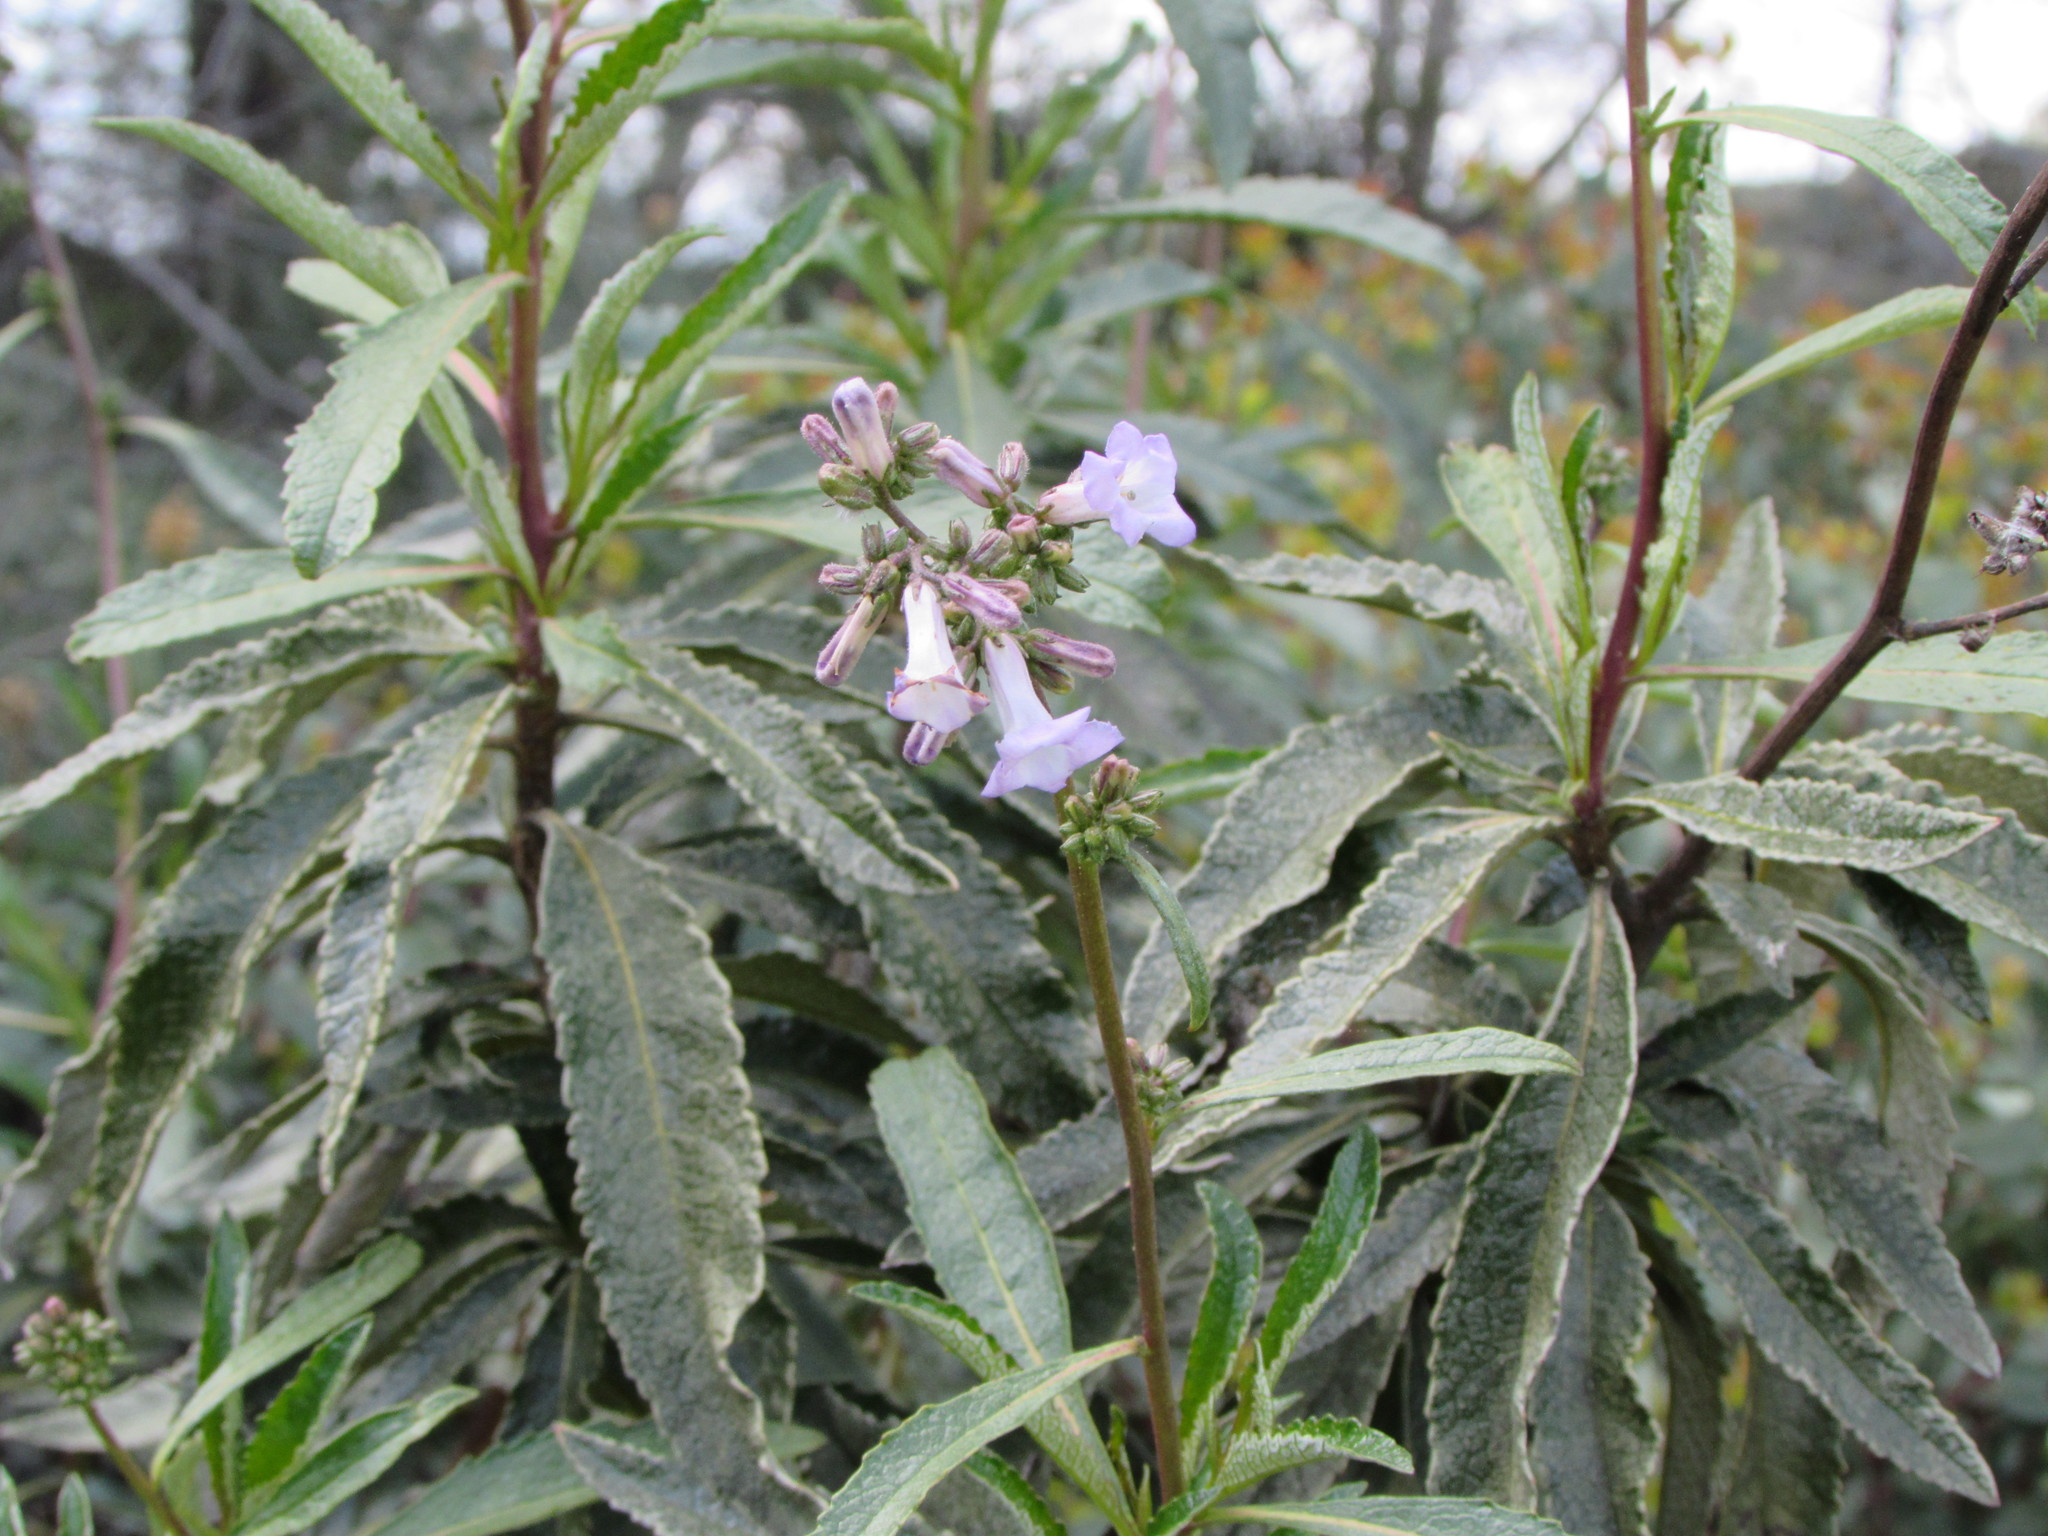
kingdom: Plantae
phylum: Tracheophyta
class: Magnoliopsida
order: Boraginales
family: Namaceae
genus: Eriodictyon
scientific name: Eriodictyon californicum
